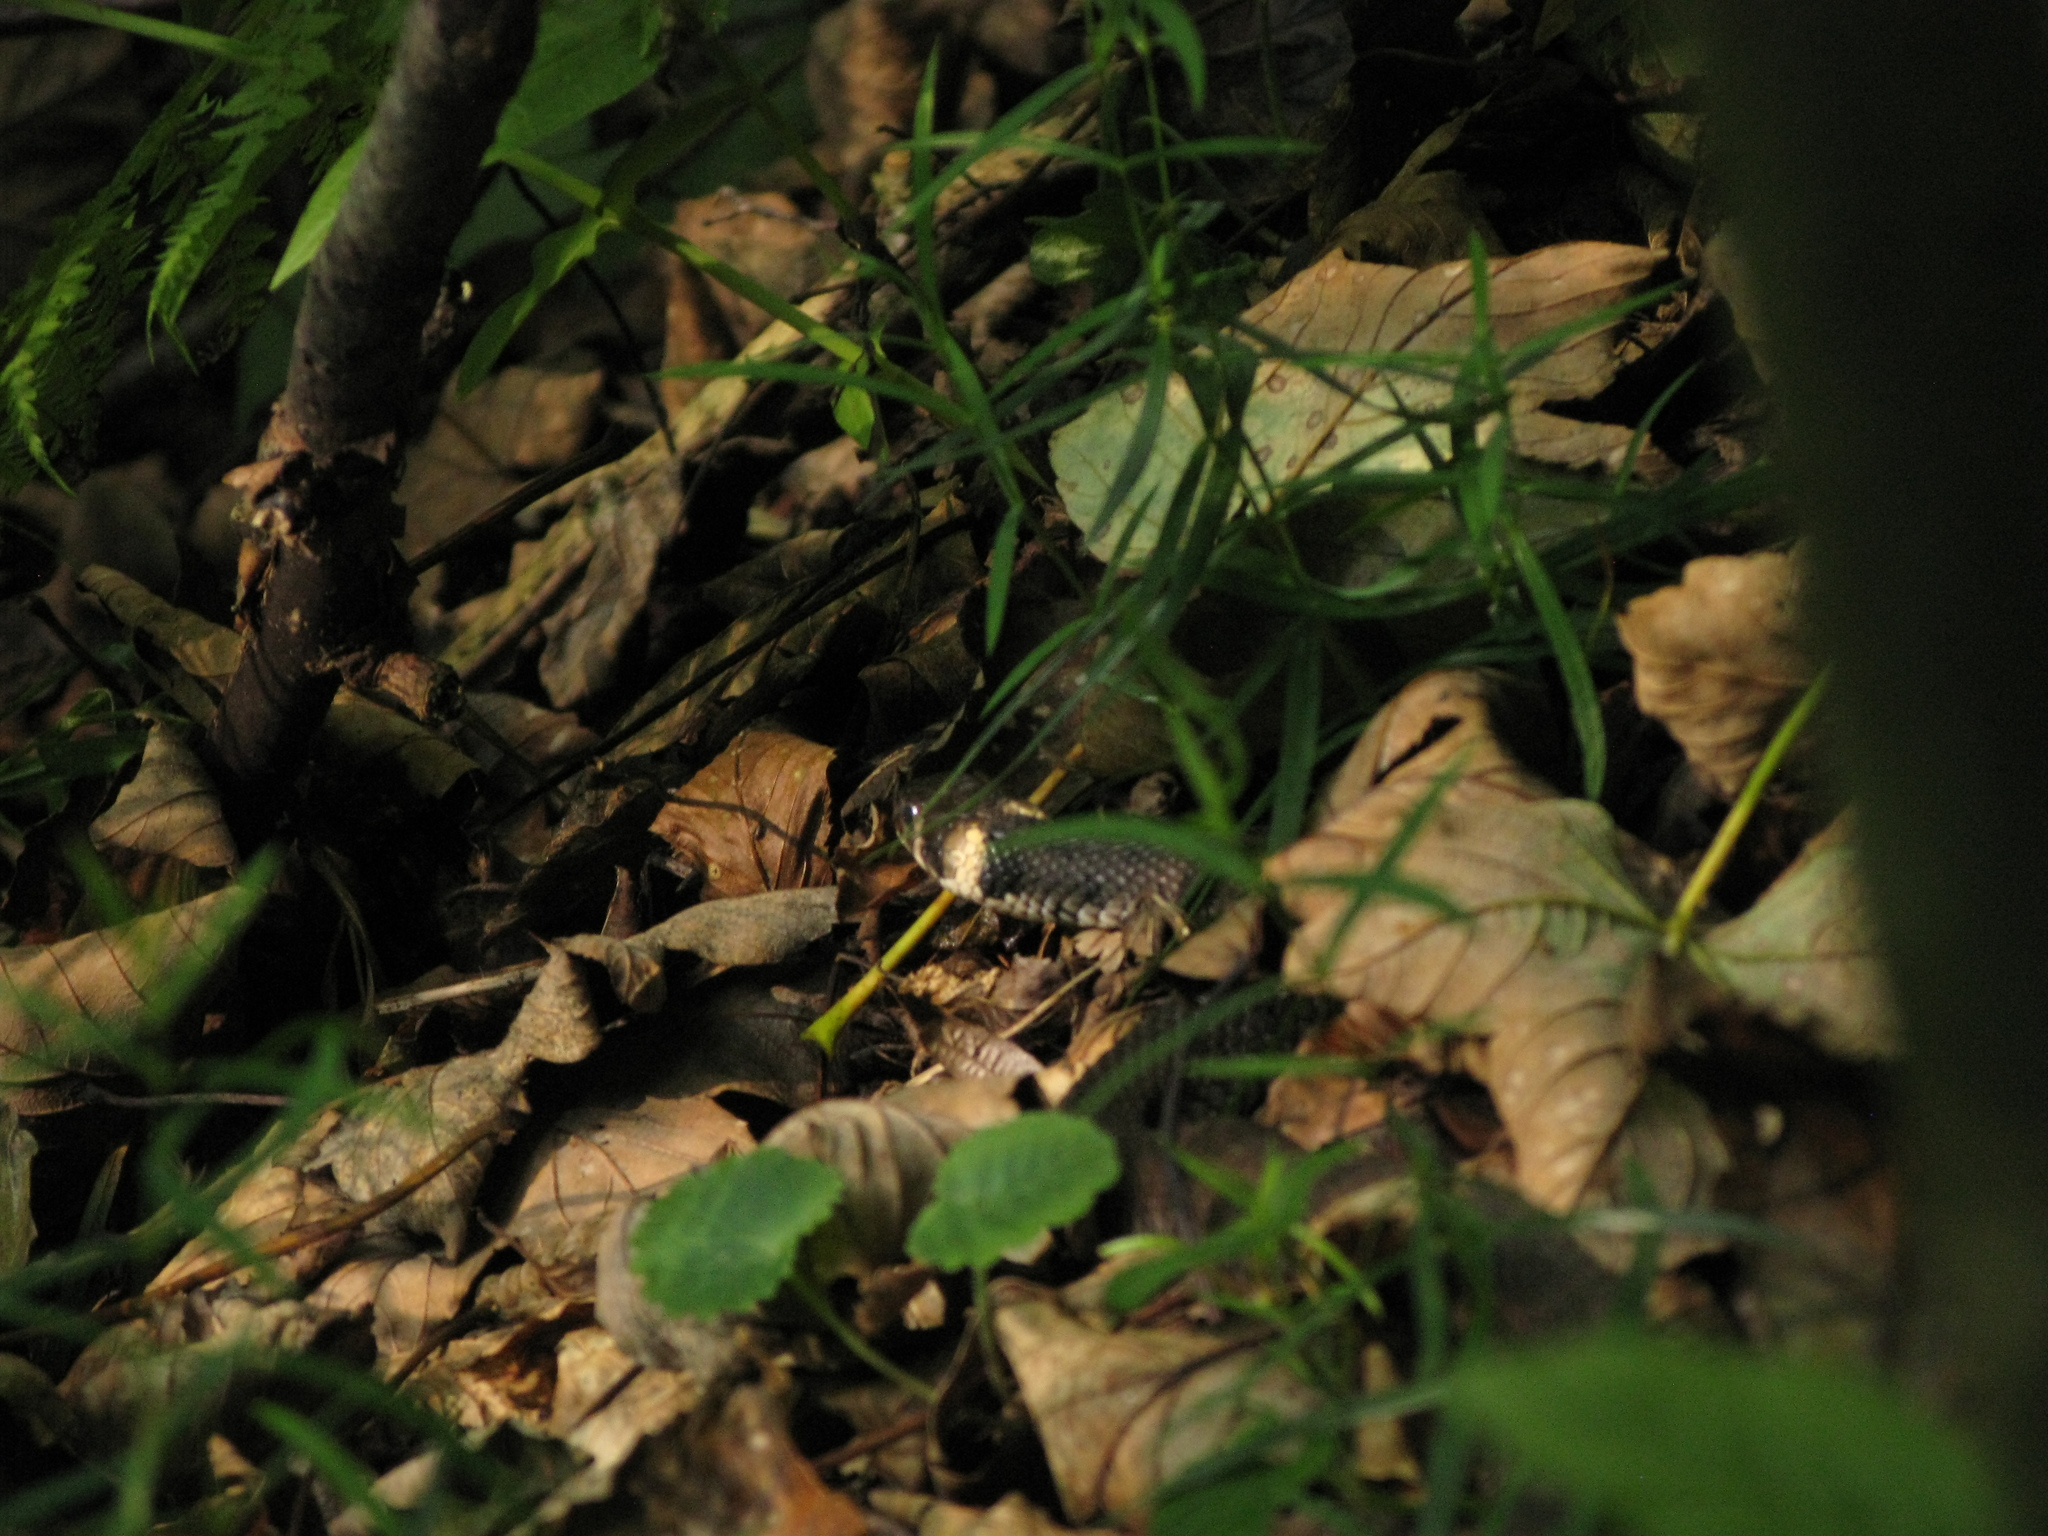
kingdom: Animalia
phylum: Chordata
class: Squamata
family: Colubridae
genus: Natrix
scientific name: Natrix natrix
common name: Grass snake
